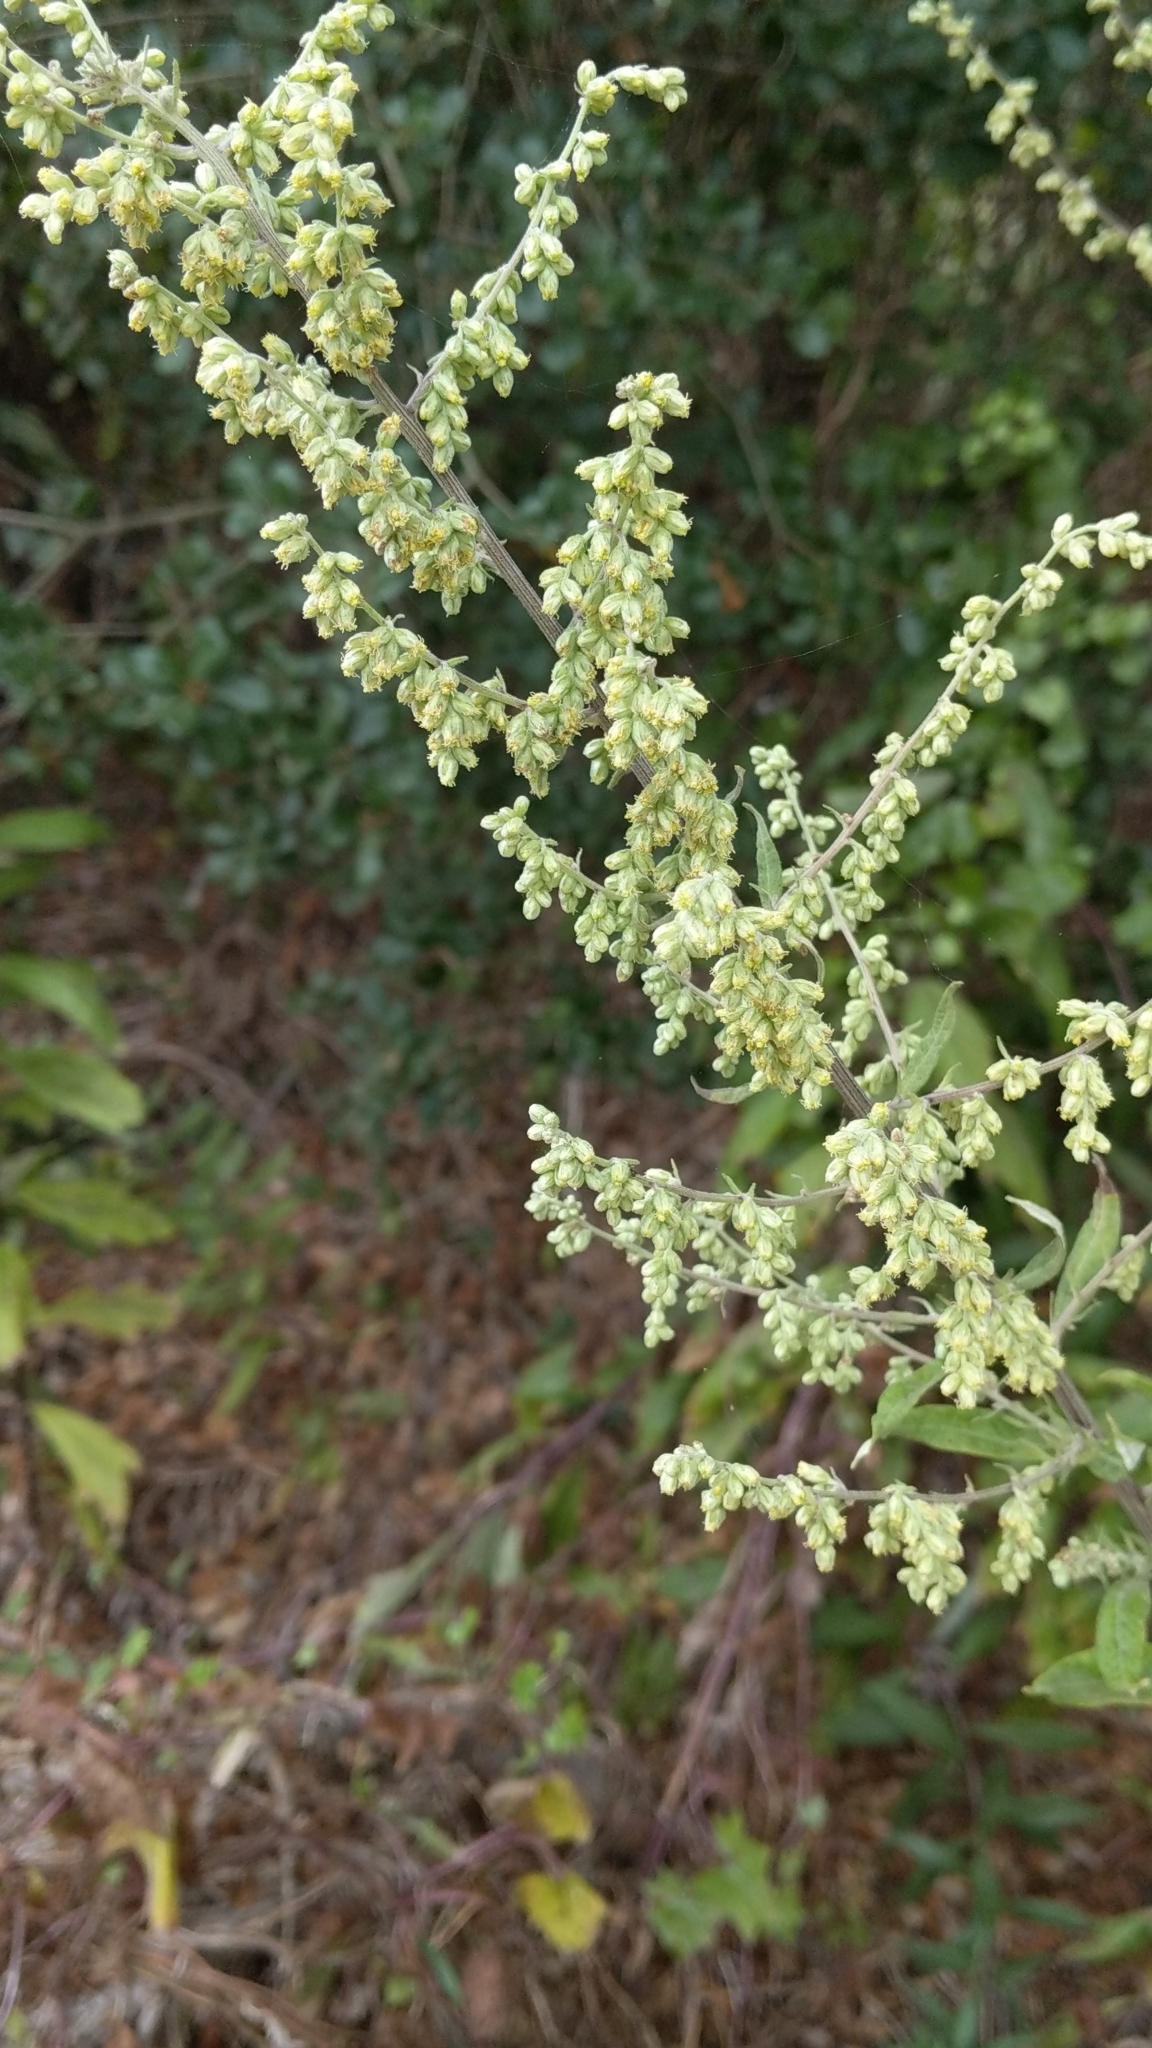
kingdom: Plantae
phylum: Tracheophyta
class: Magnoliopsida
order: Asterales
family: Asteraceae
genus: Artemisia
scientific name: Artemisia douglasiana
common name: Northwest mugwort
